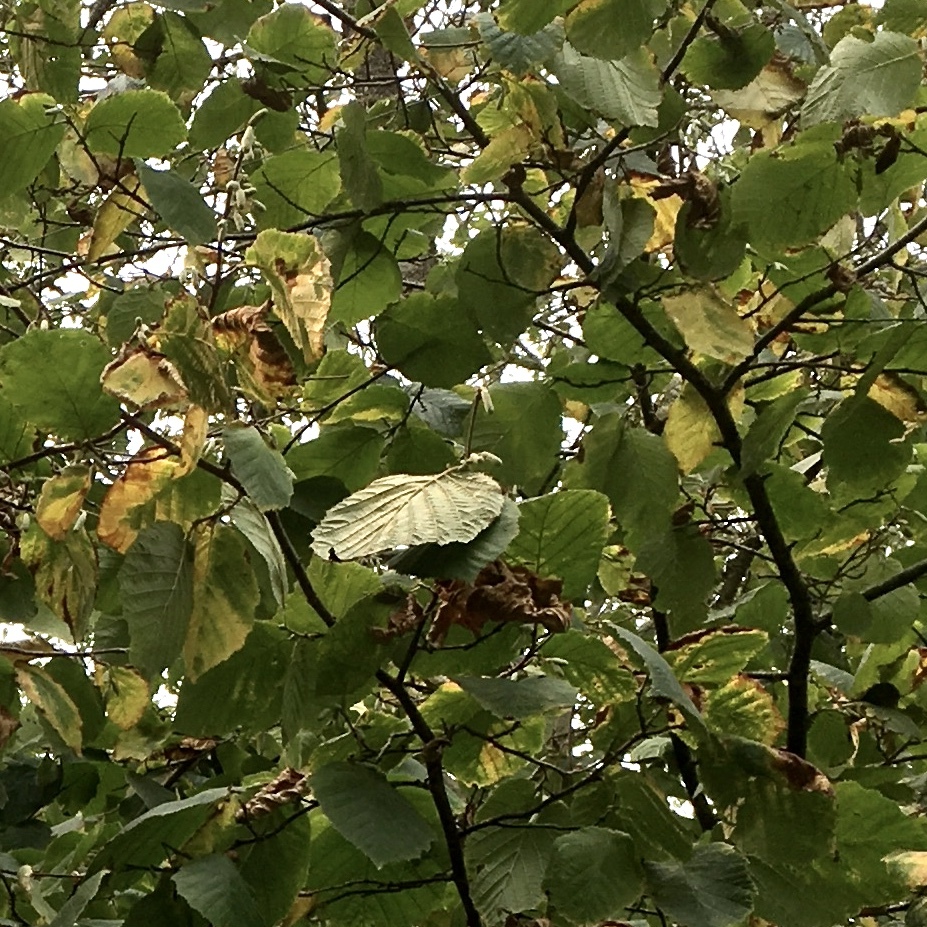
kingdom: Plantae
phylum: Tracheophyta
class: Magnoliopsida
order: Fagales
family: Betulaceae
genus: Corylus
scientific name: Corylus cornuta
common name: Beaked hazel
